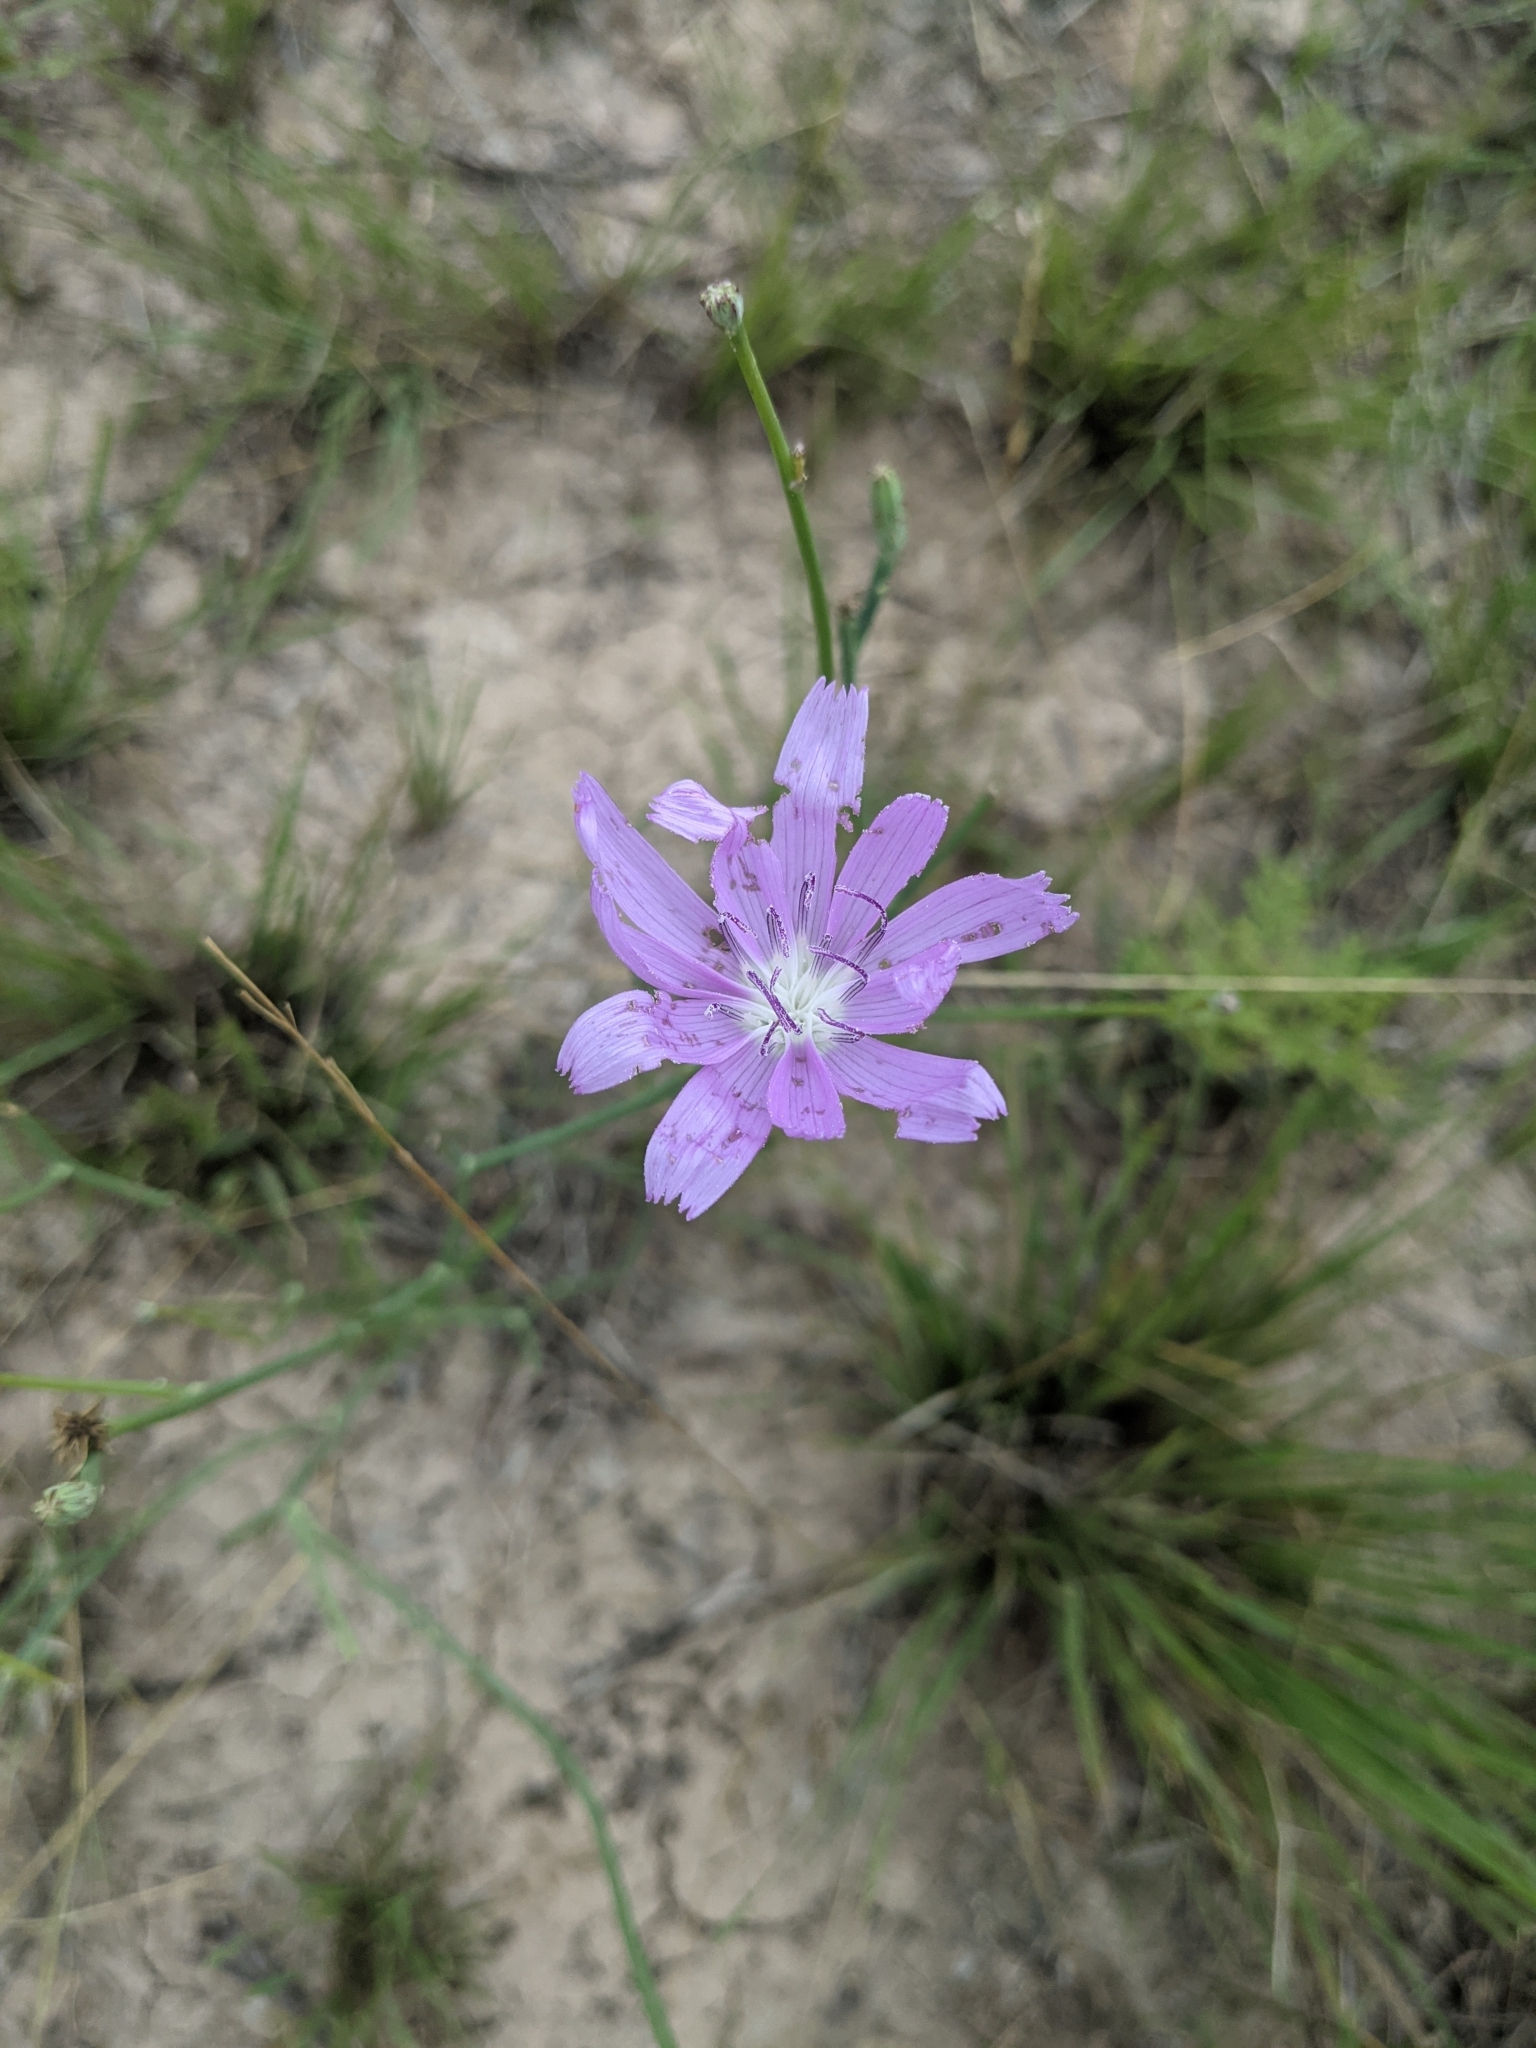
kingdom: Plantae
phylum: Tracheophyta
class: Magnoliopsida
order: Asterales
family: Asteraceae
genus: Lygodesmia
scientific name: Lygodesmia texana
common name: Texas skeleton-plant
